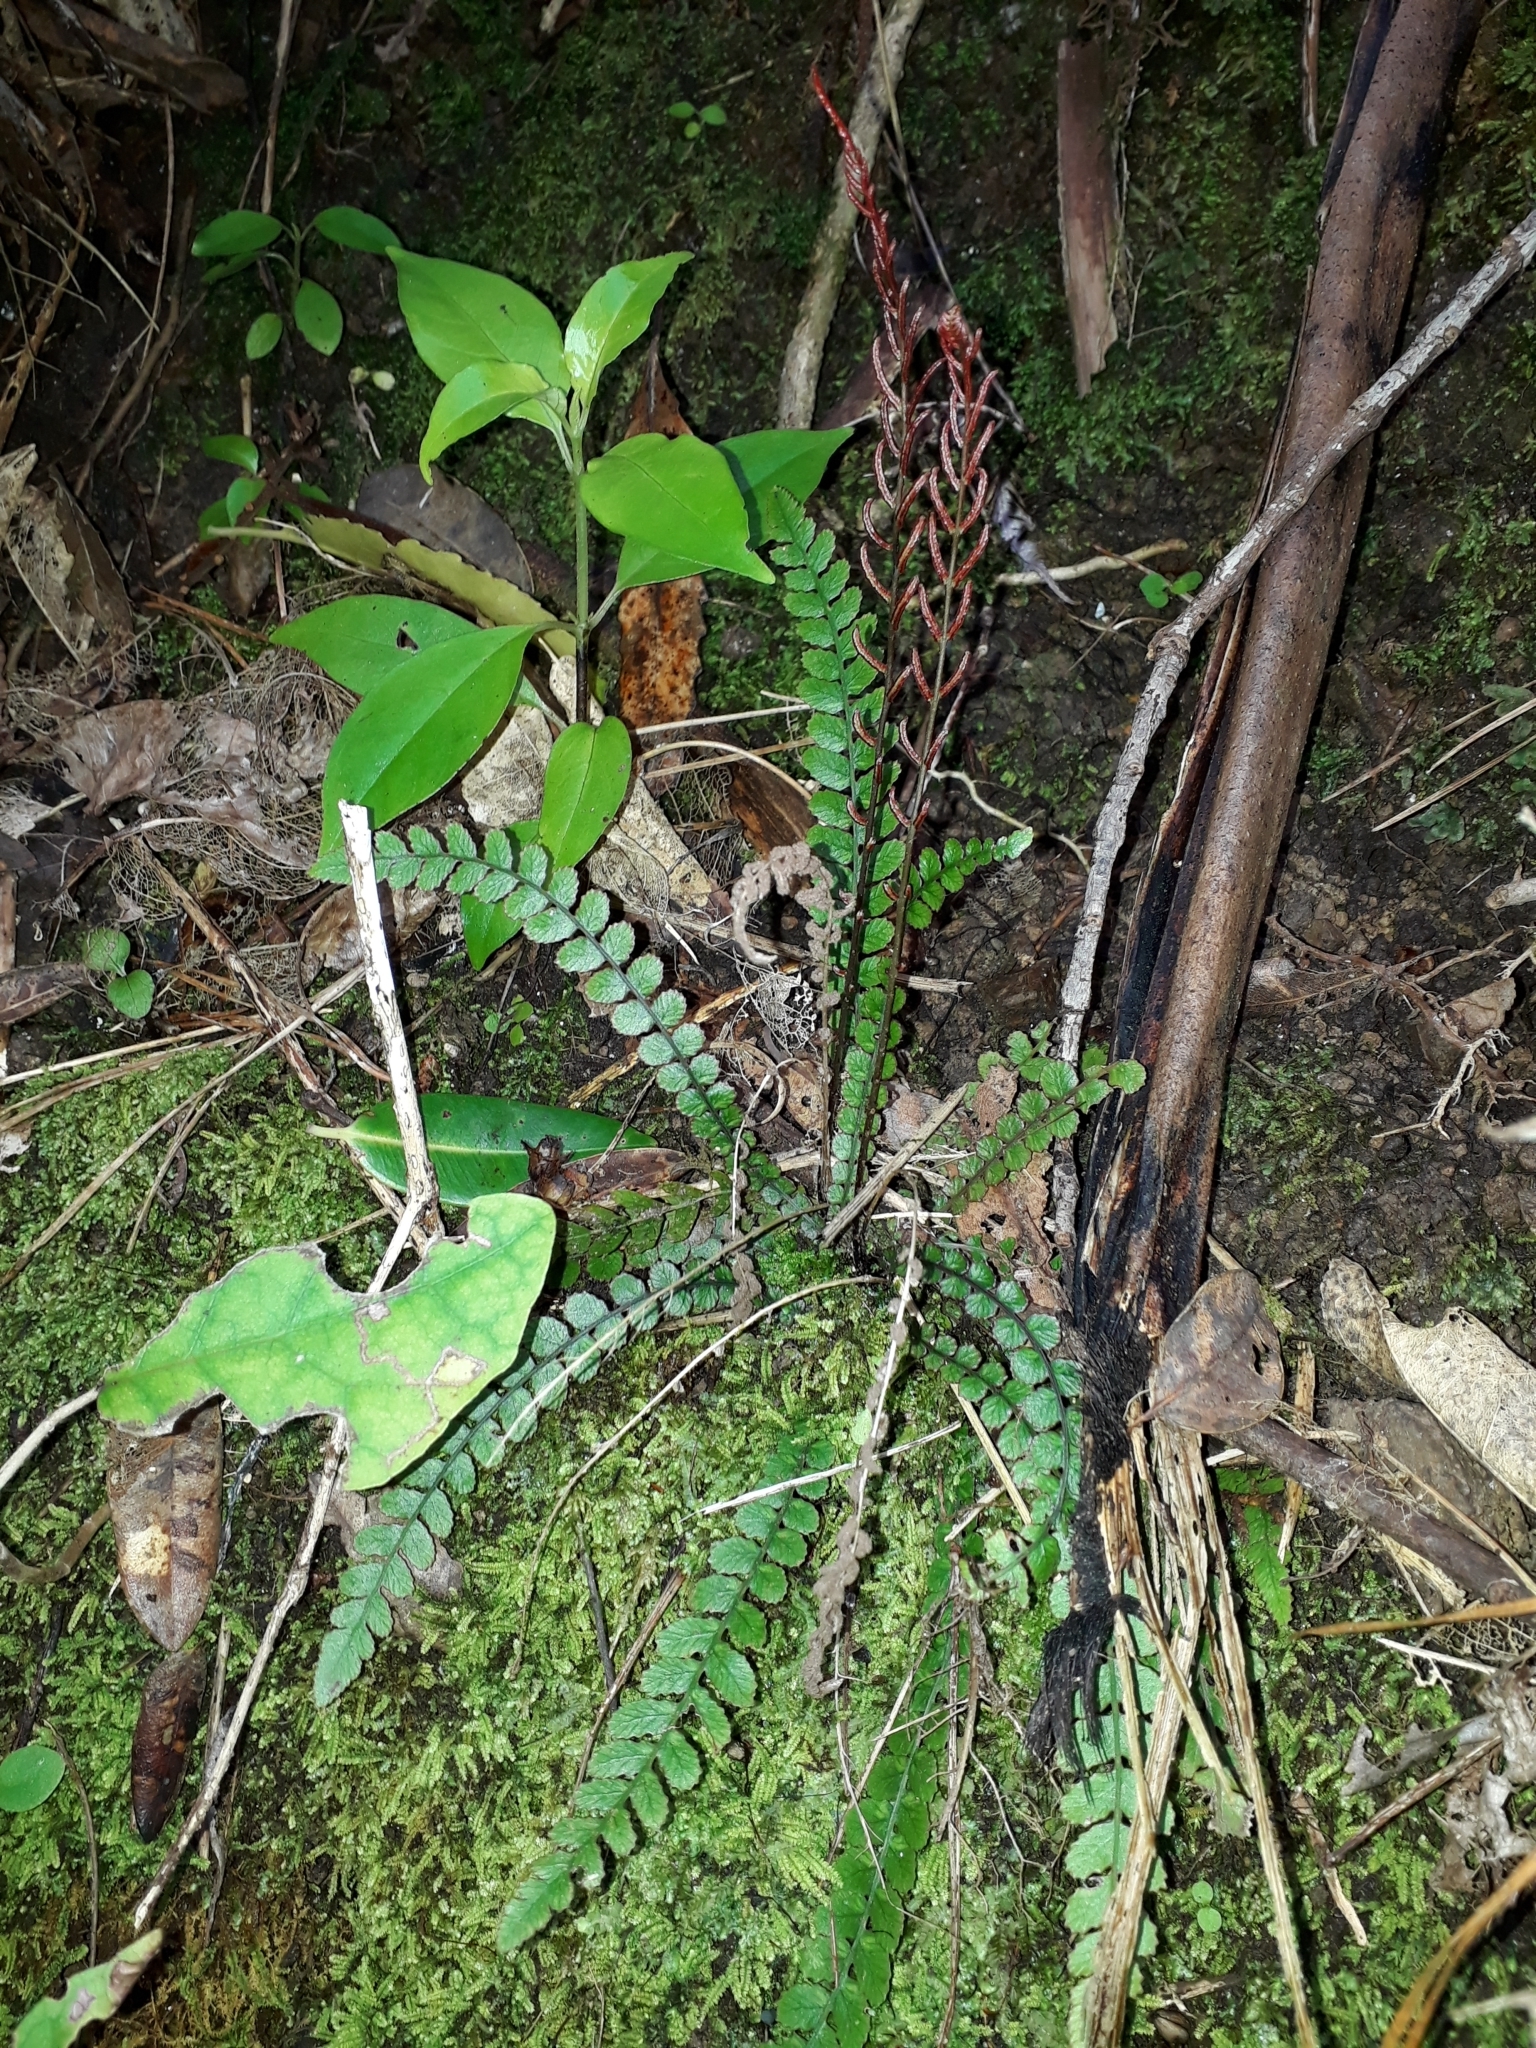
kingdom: Plantae
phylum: Tracheophyta
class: Polypodiopsida
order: Polypodiales
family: Blechnaceae
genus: Austroblechnum
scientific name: Austroblechnum membranaceum
